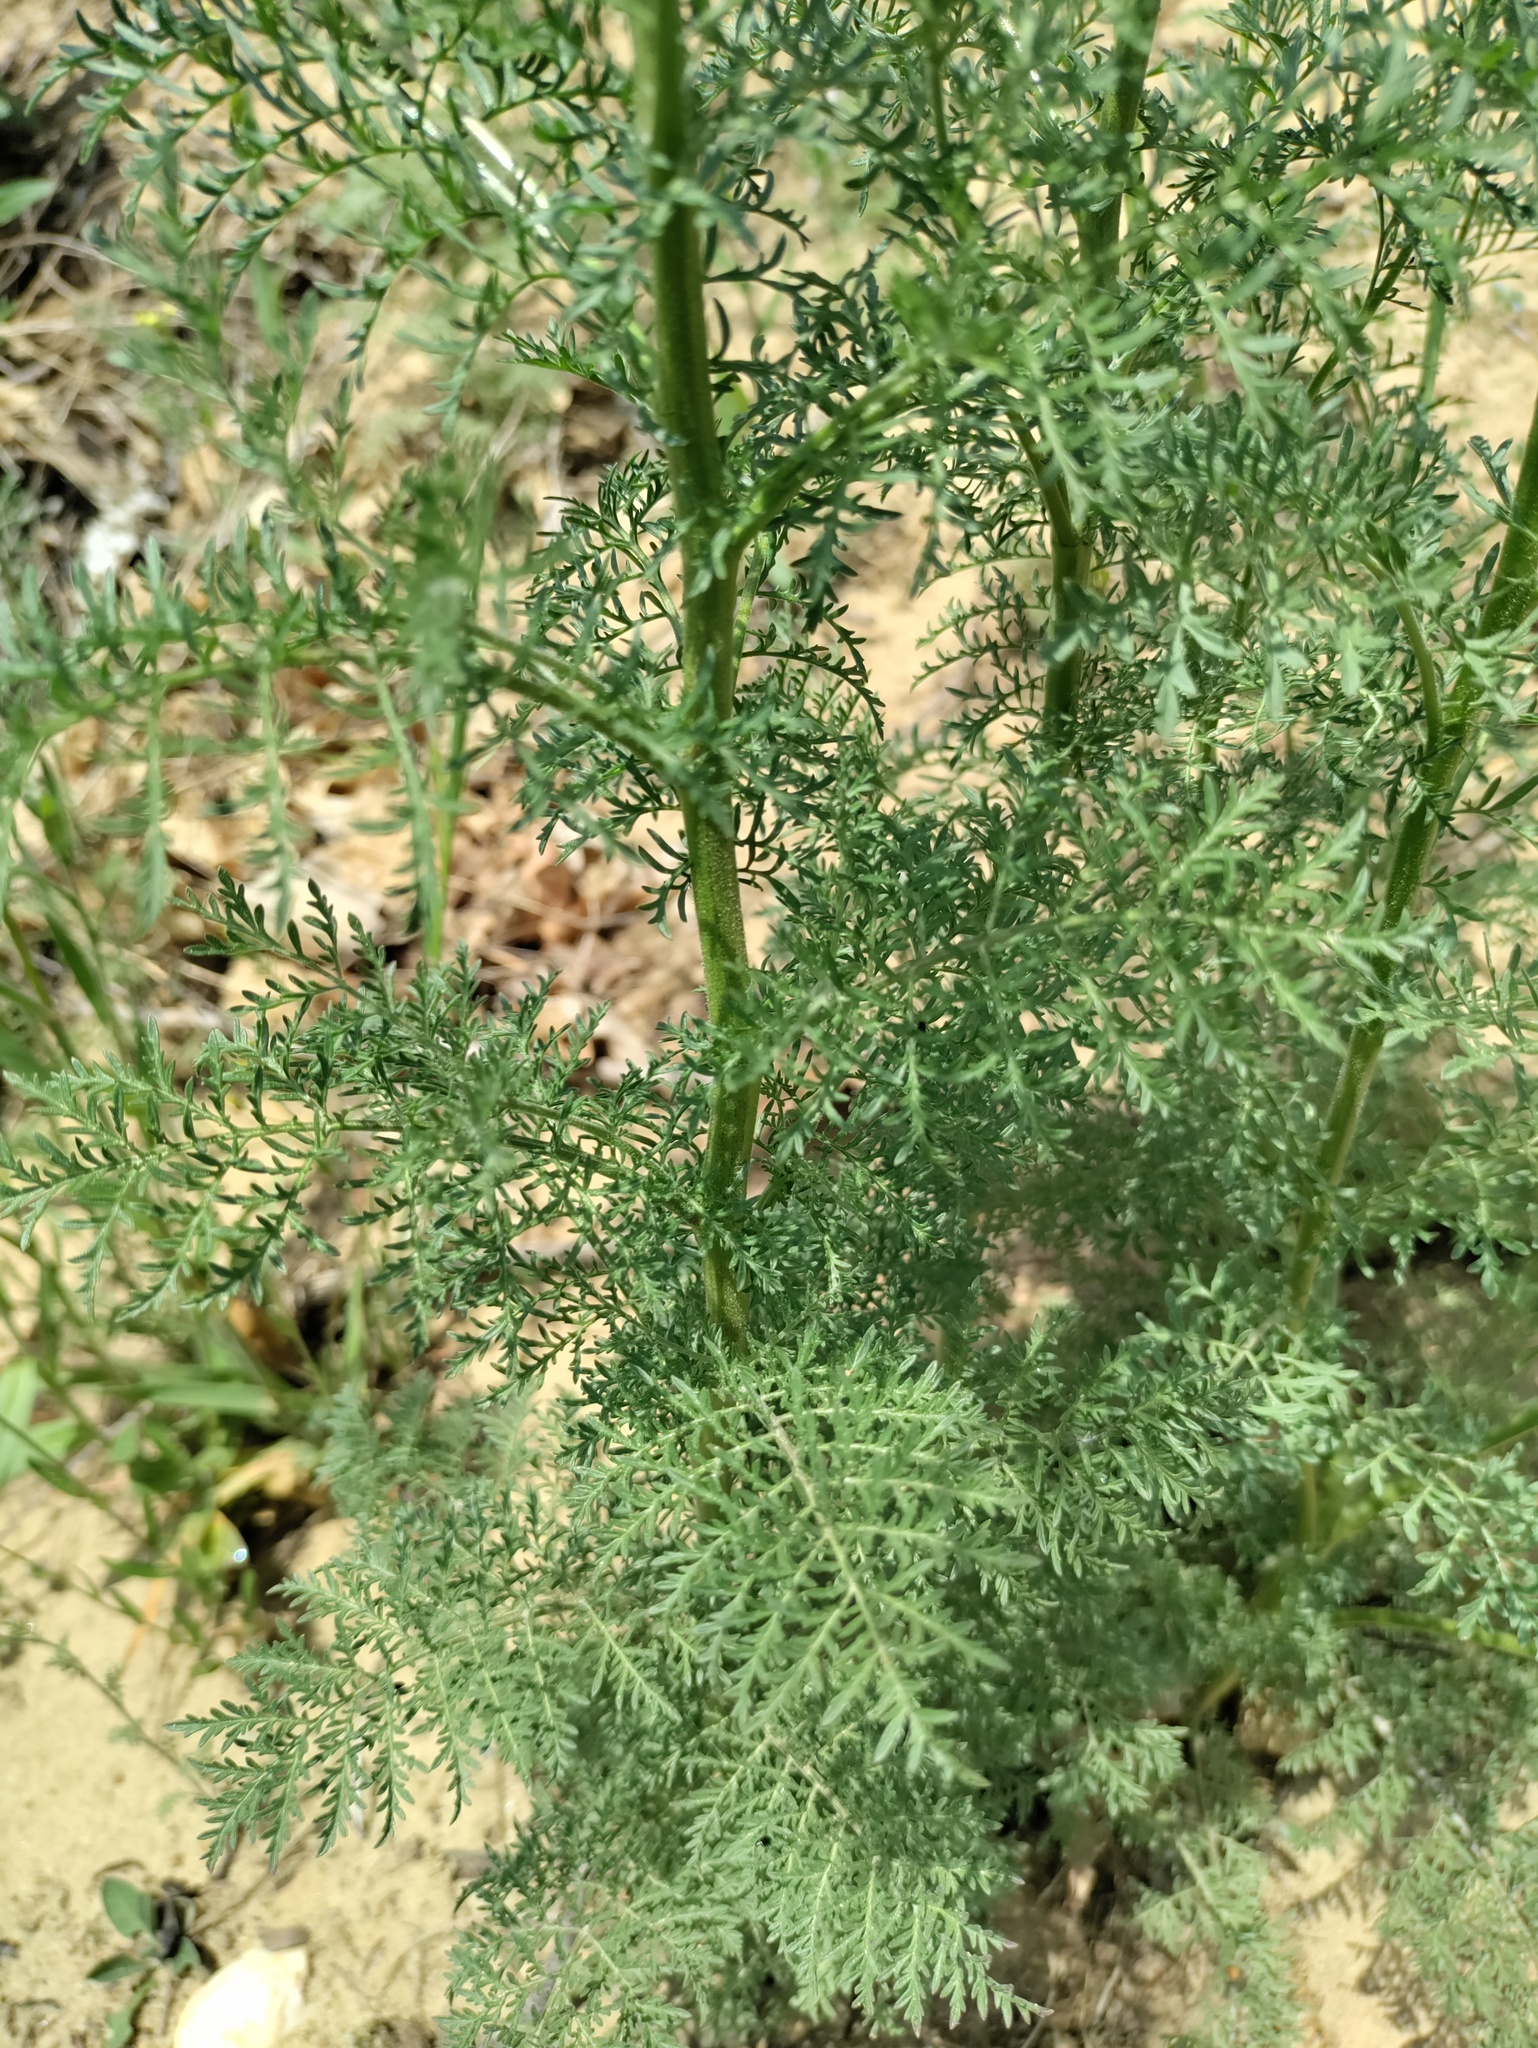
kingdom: Plantae
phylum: Tracheophyta
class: Magnoliopsida
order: Brassicales
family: Brassicaceae
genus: Descurainia
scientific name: Descurainia sophia
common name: Flixweed
